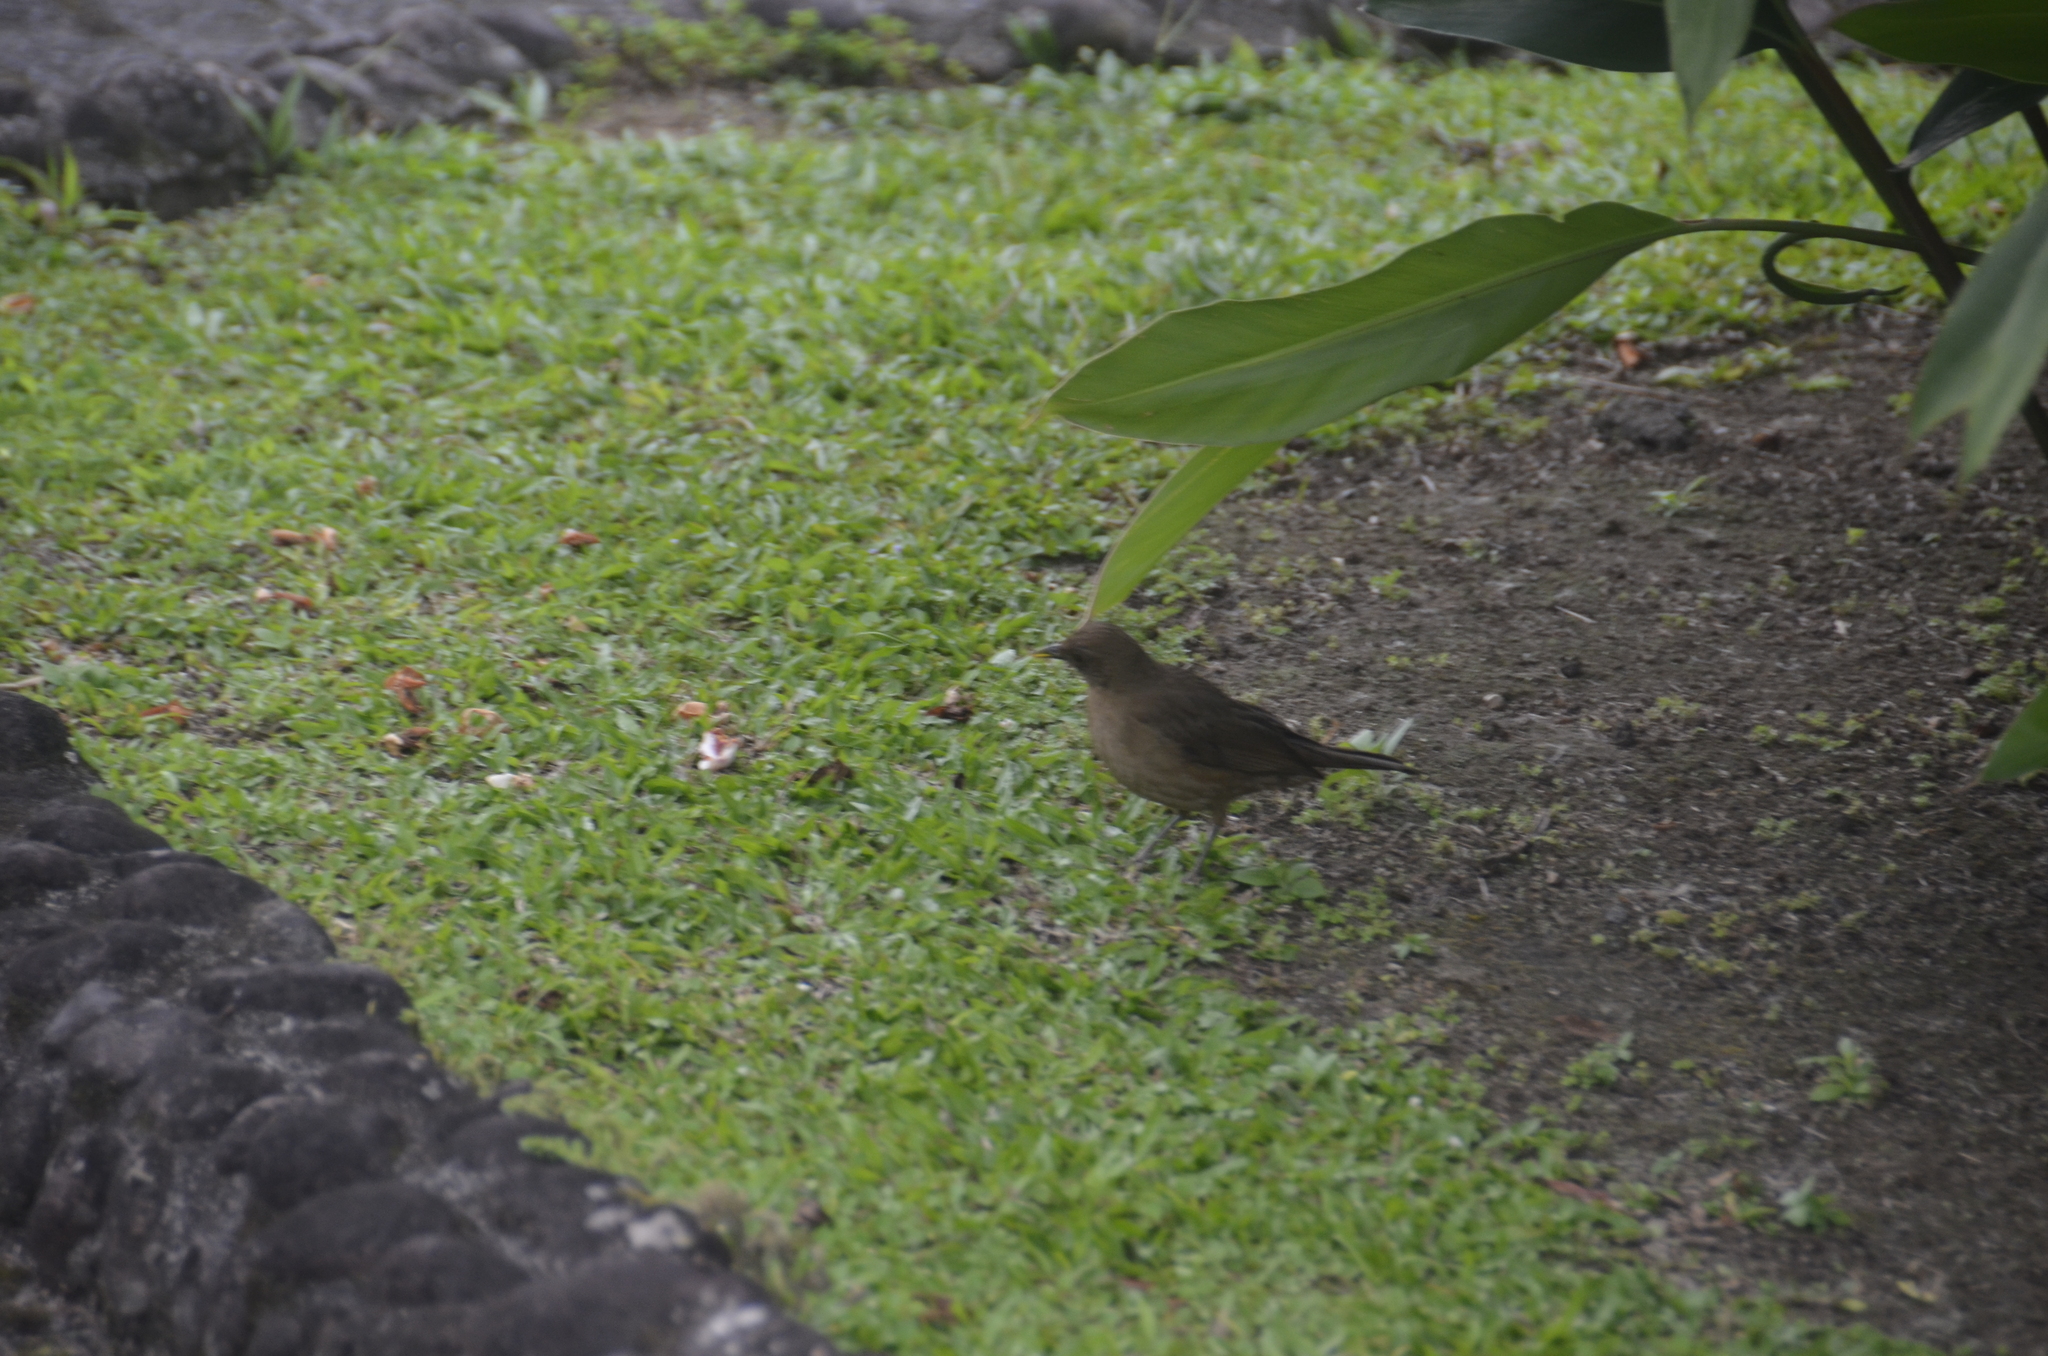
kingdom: Animalia
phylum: Chordata
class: Aves
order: Passeriformes
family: Turdidae
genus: Turdus
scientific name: Turdus grayi
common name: Clay-colored thrush
